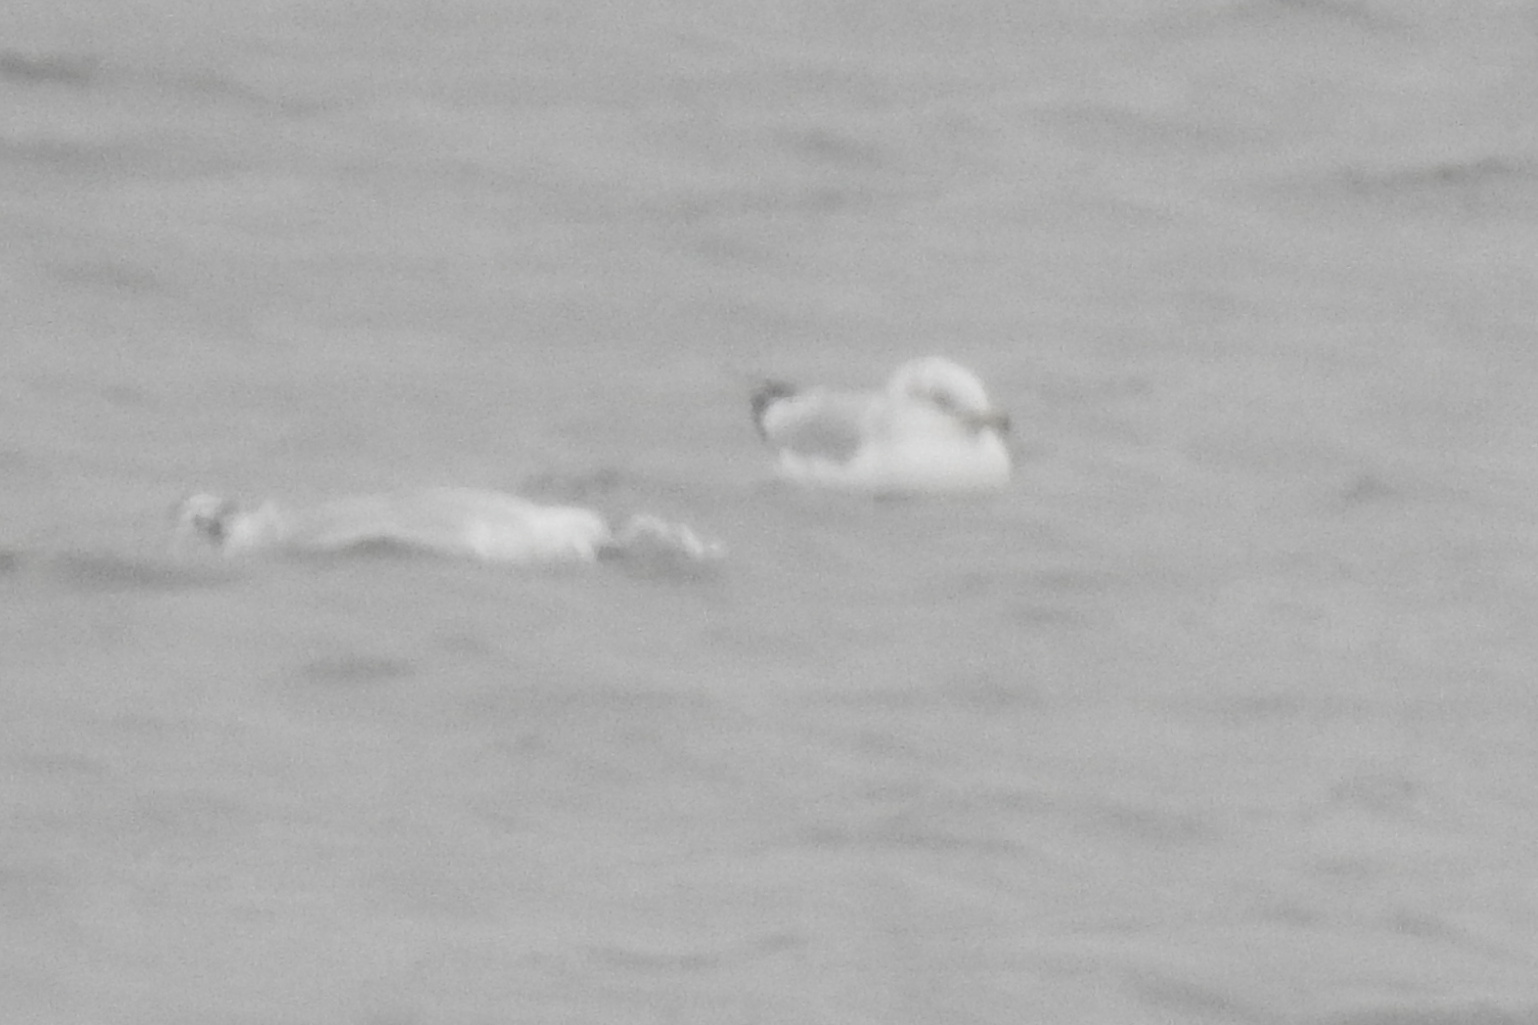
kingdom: Animalia
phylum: Chordata
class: Aves
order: Charadriiformes
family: Laridae
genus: Larus
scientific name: Larus delawarensis
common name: Ring-billed gull
